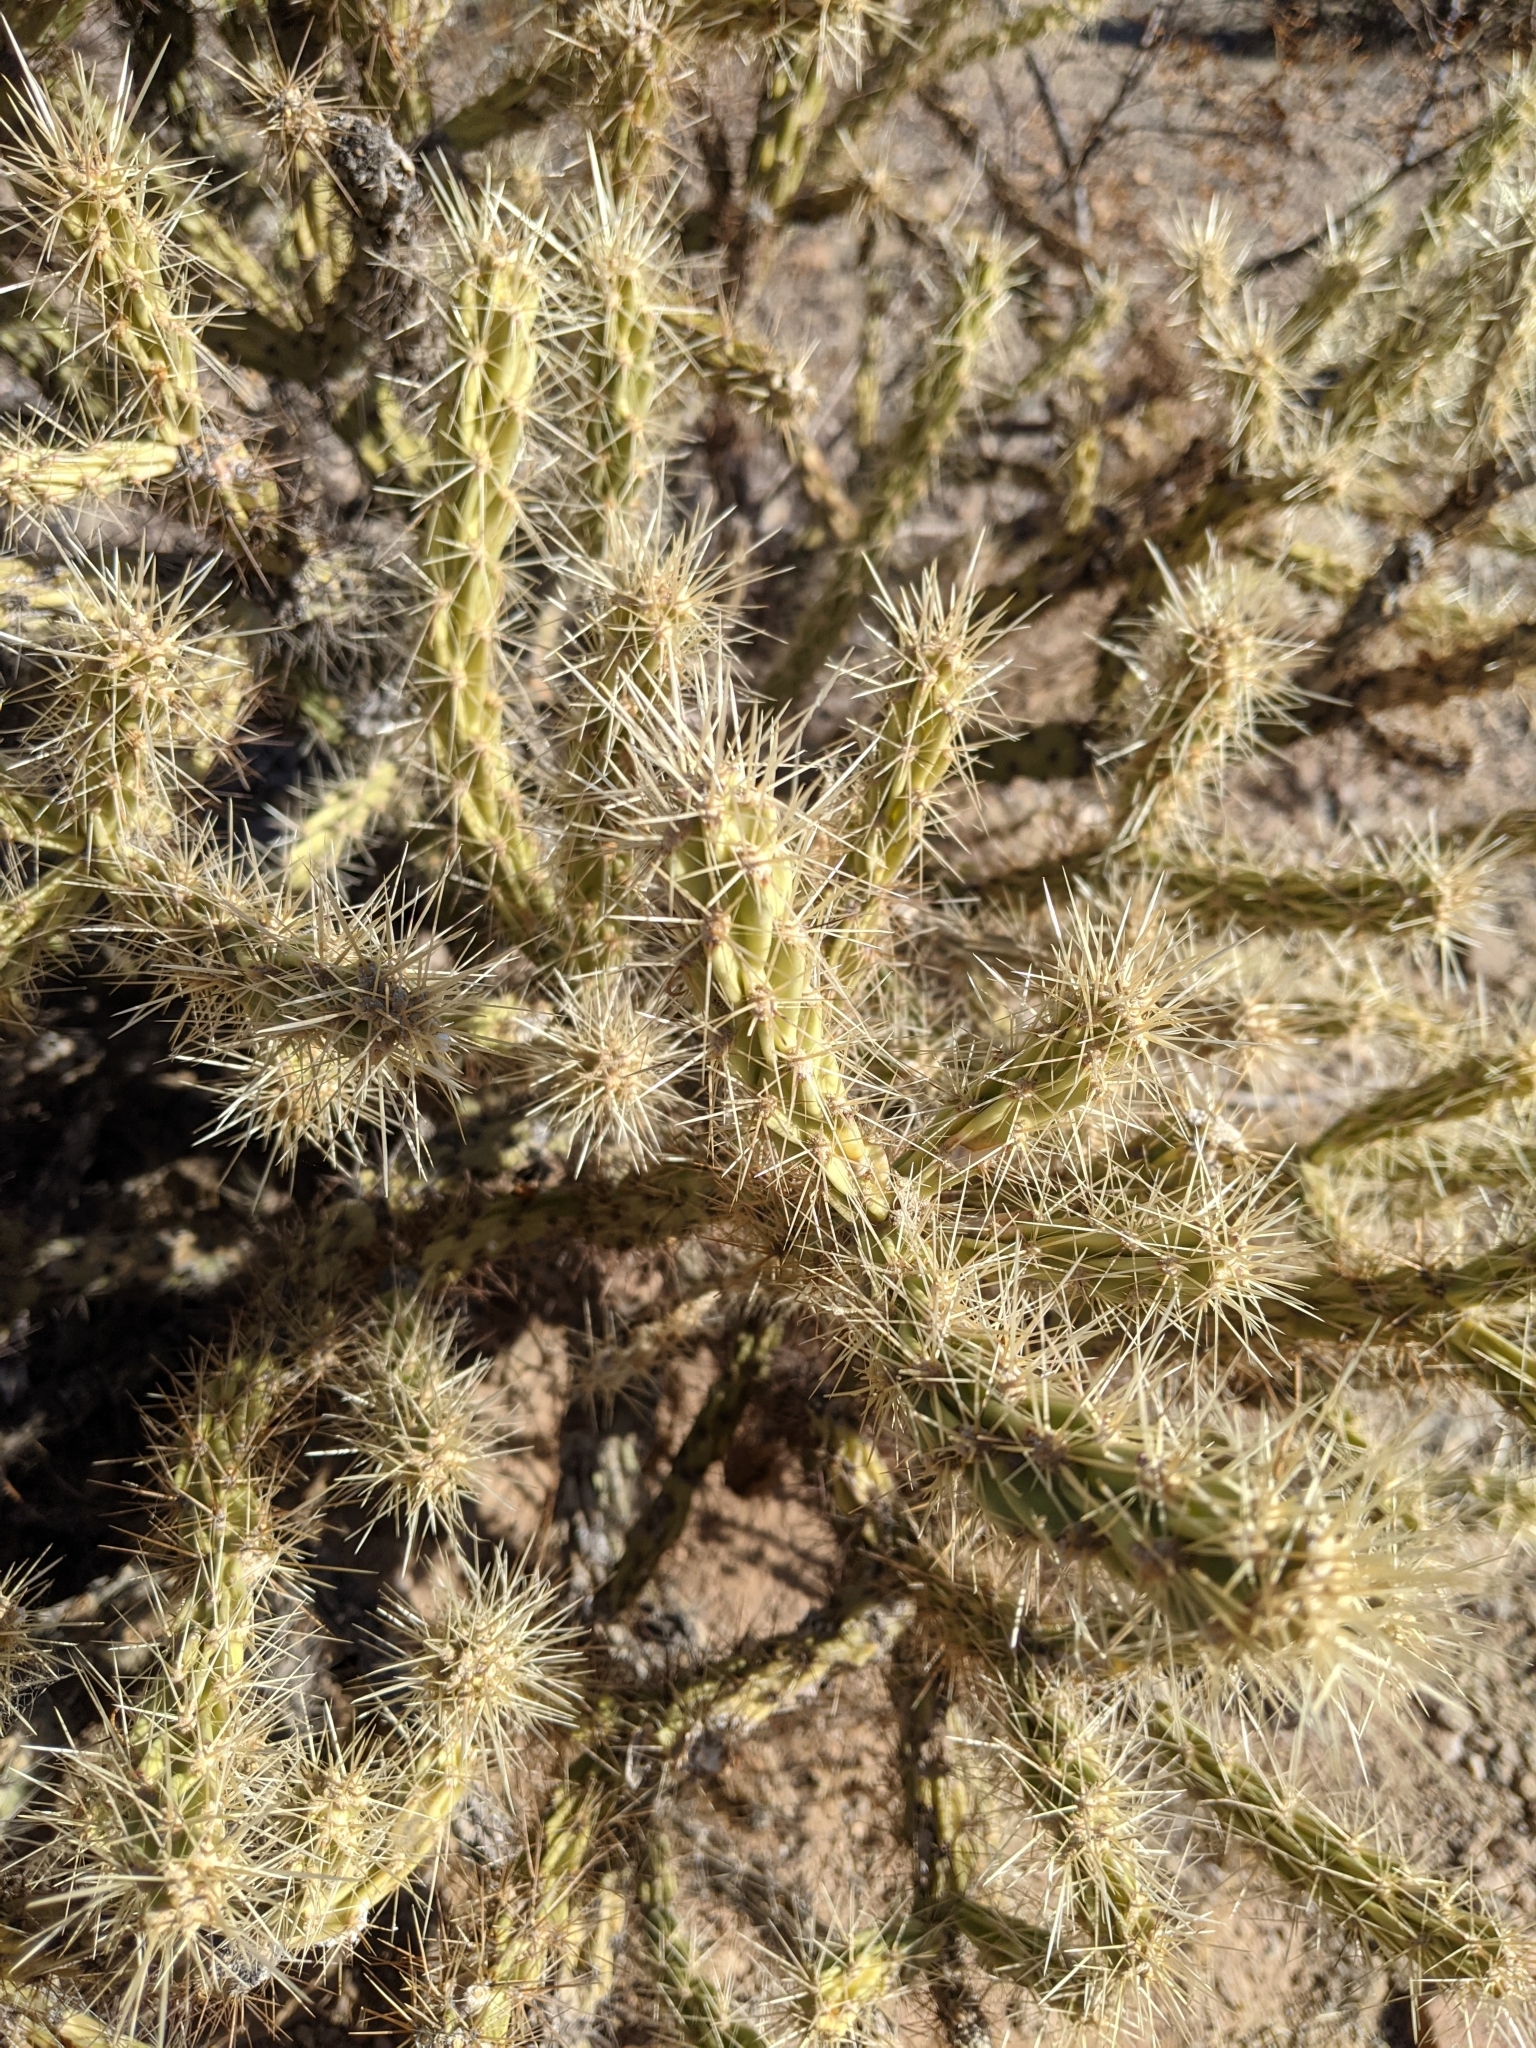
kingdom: Plantae
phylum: Tracheophyta
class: Magnoliopsida
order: Caryophyllales
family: Cactaceae
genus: Cylindropuntia
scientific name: Cylindropuntia acanthocarpa
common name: Buckhorn cholla
